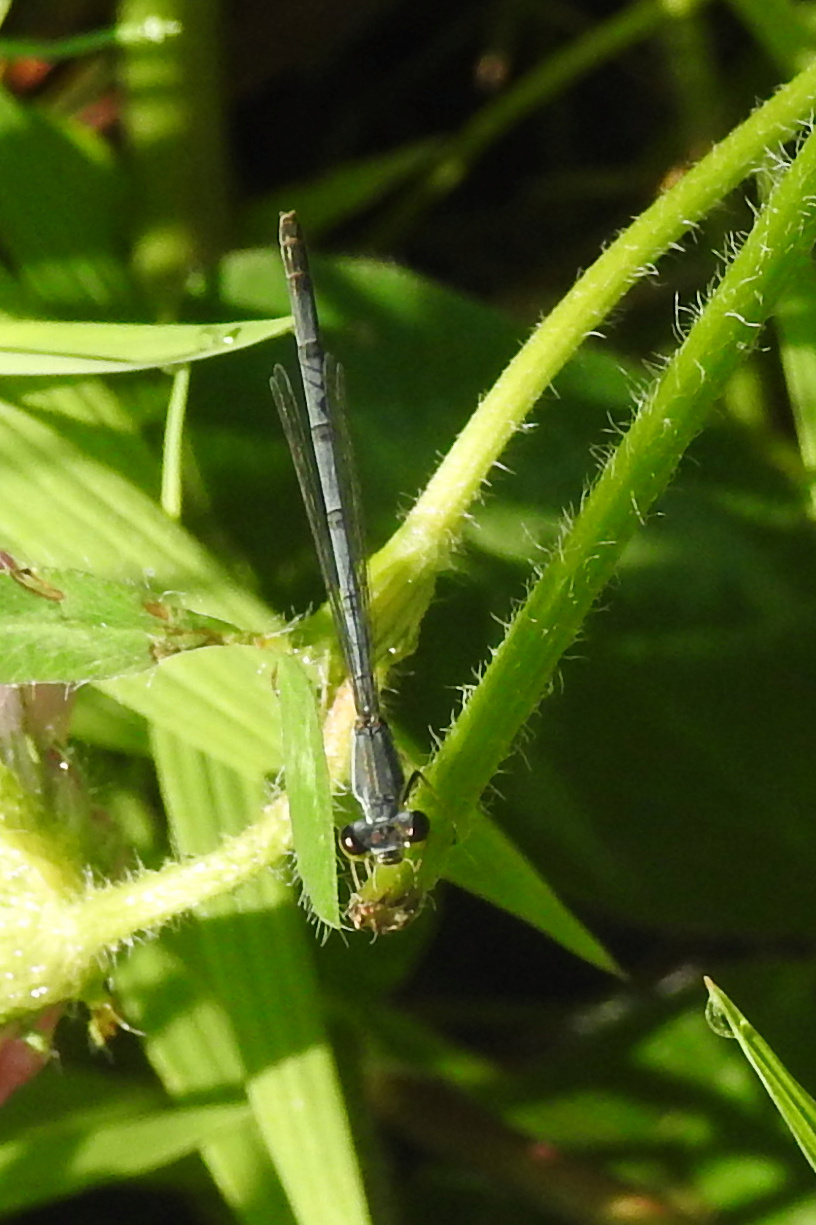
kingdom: Animalia
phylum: Arthropoda
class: Insecta
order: Odonata
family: Coenagrionidae
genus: Ischnura
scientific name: Ischnura posita
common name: Fragile forktail
